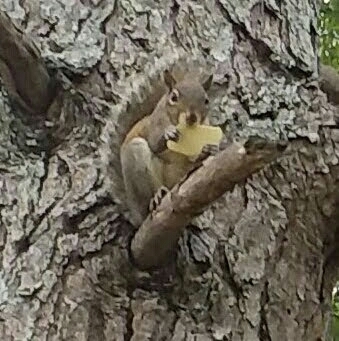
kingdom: Animalia
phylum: Chordata
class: Mammalia
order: Rodentia
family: Sciuridae
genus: Sciurus
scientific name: Sciurus carolinensis
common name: Eastern gray squirrel
